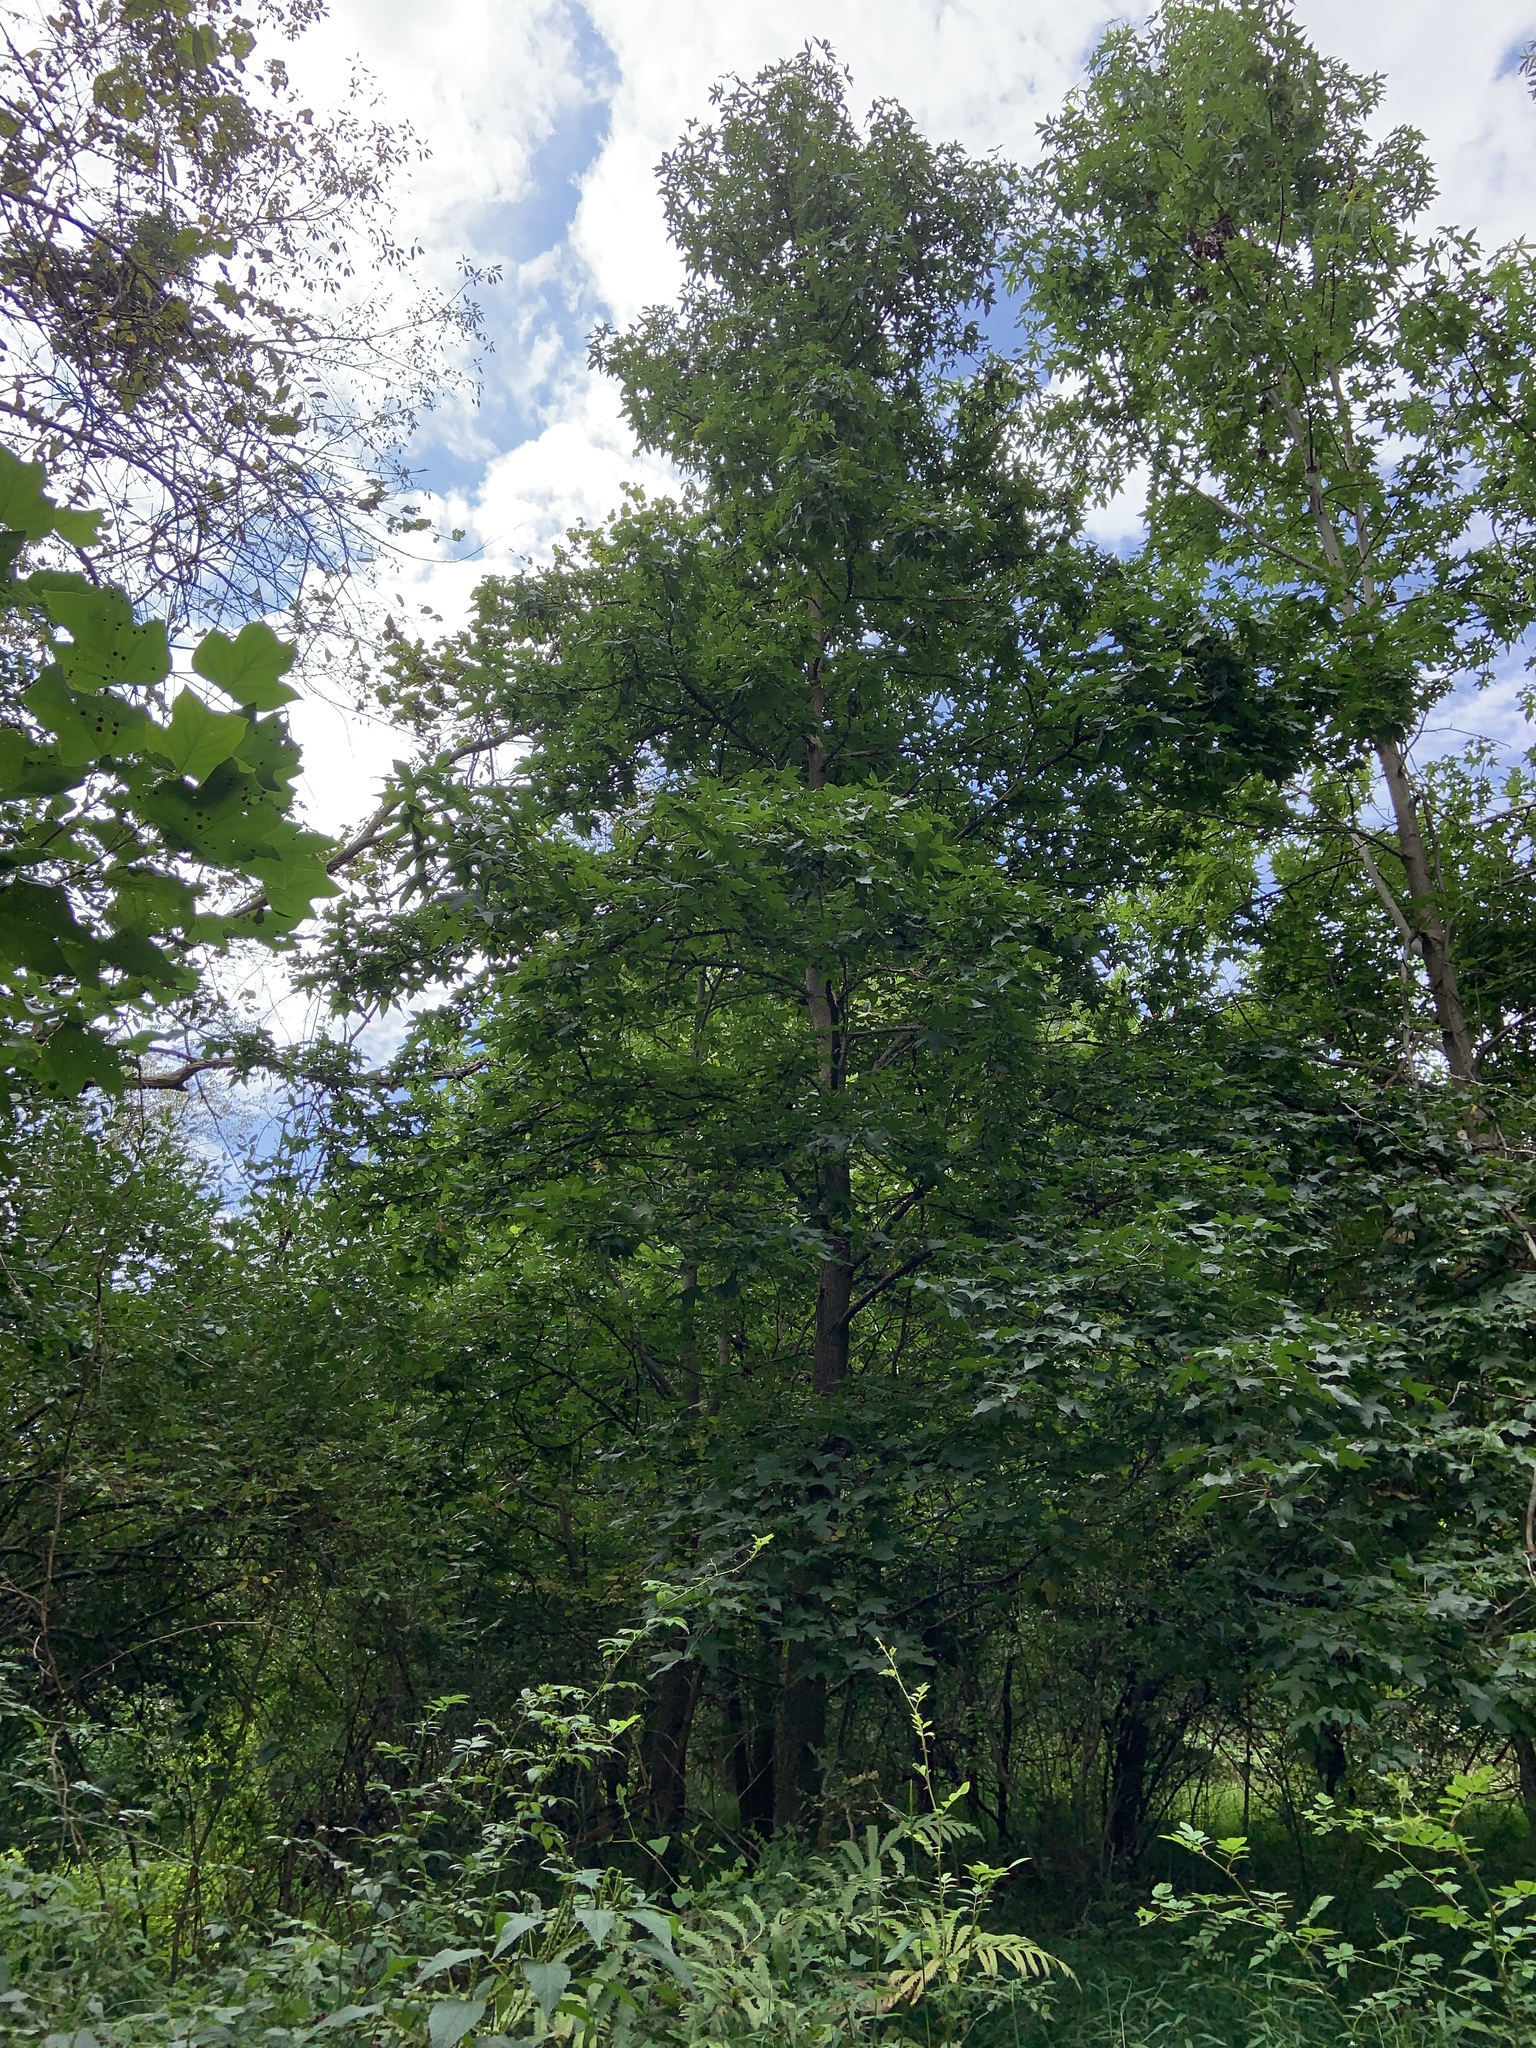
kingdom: Plantae
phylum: Tracheophyta
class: Magnoliopsida
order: Saxifragales
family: Altingiaceae
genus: Liquidambar
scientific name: Liquidambar styraciflua
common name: Sweet gum
